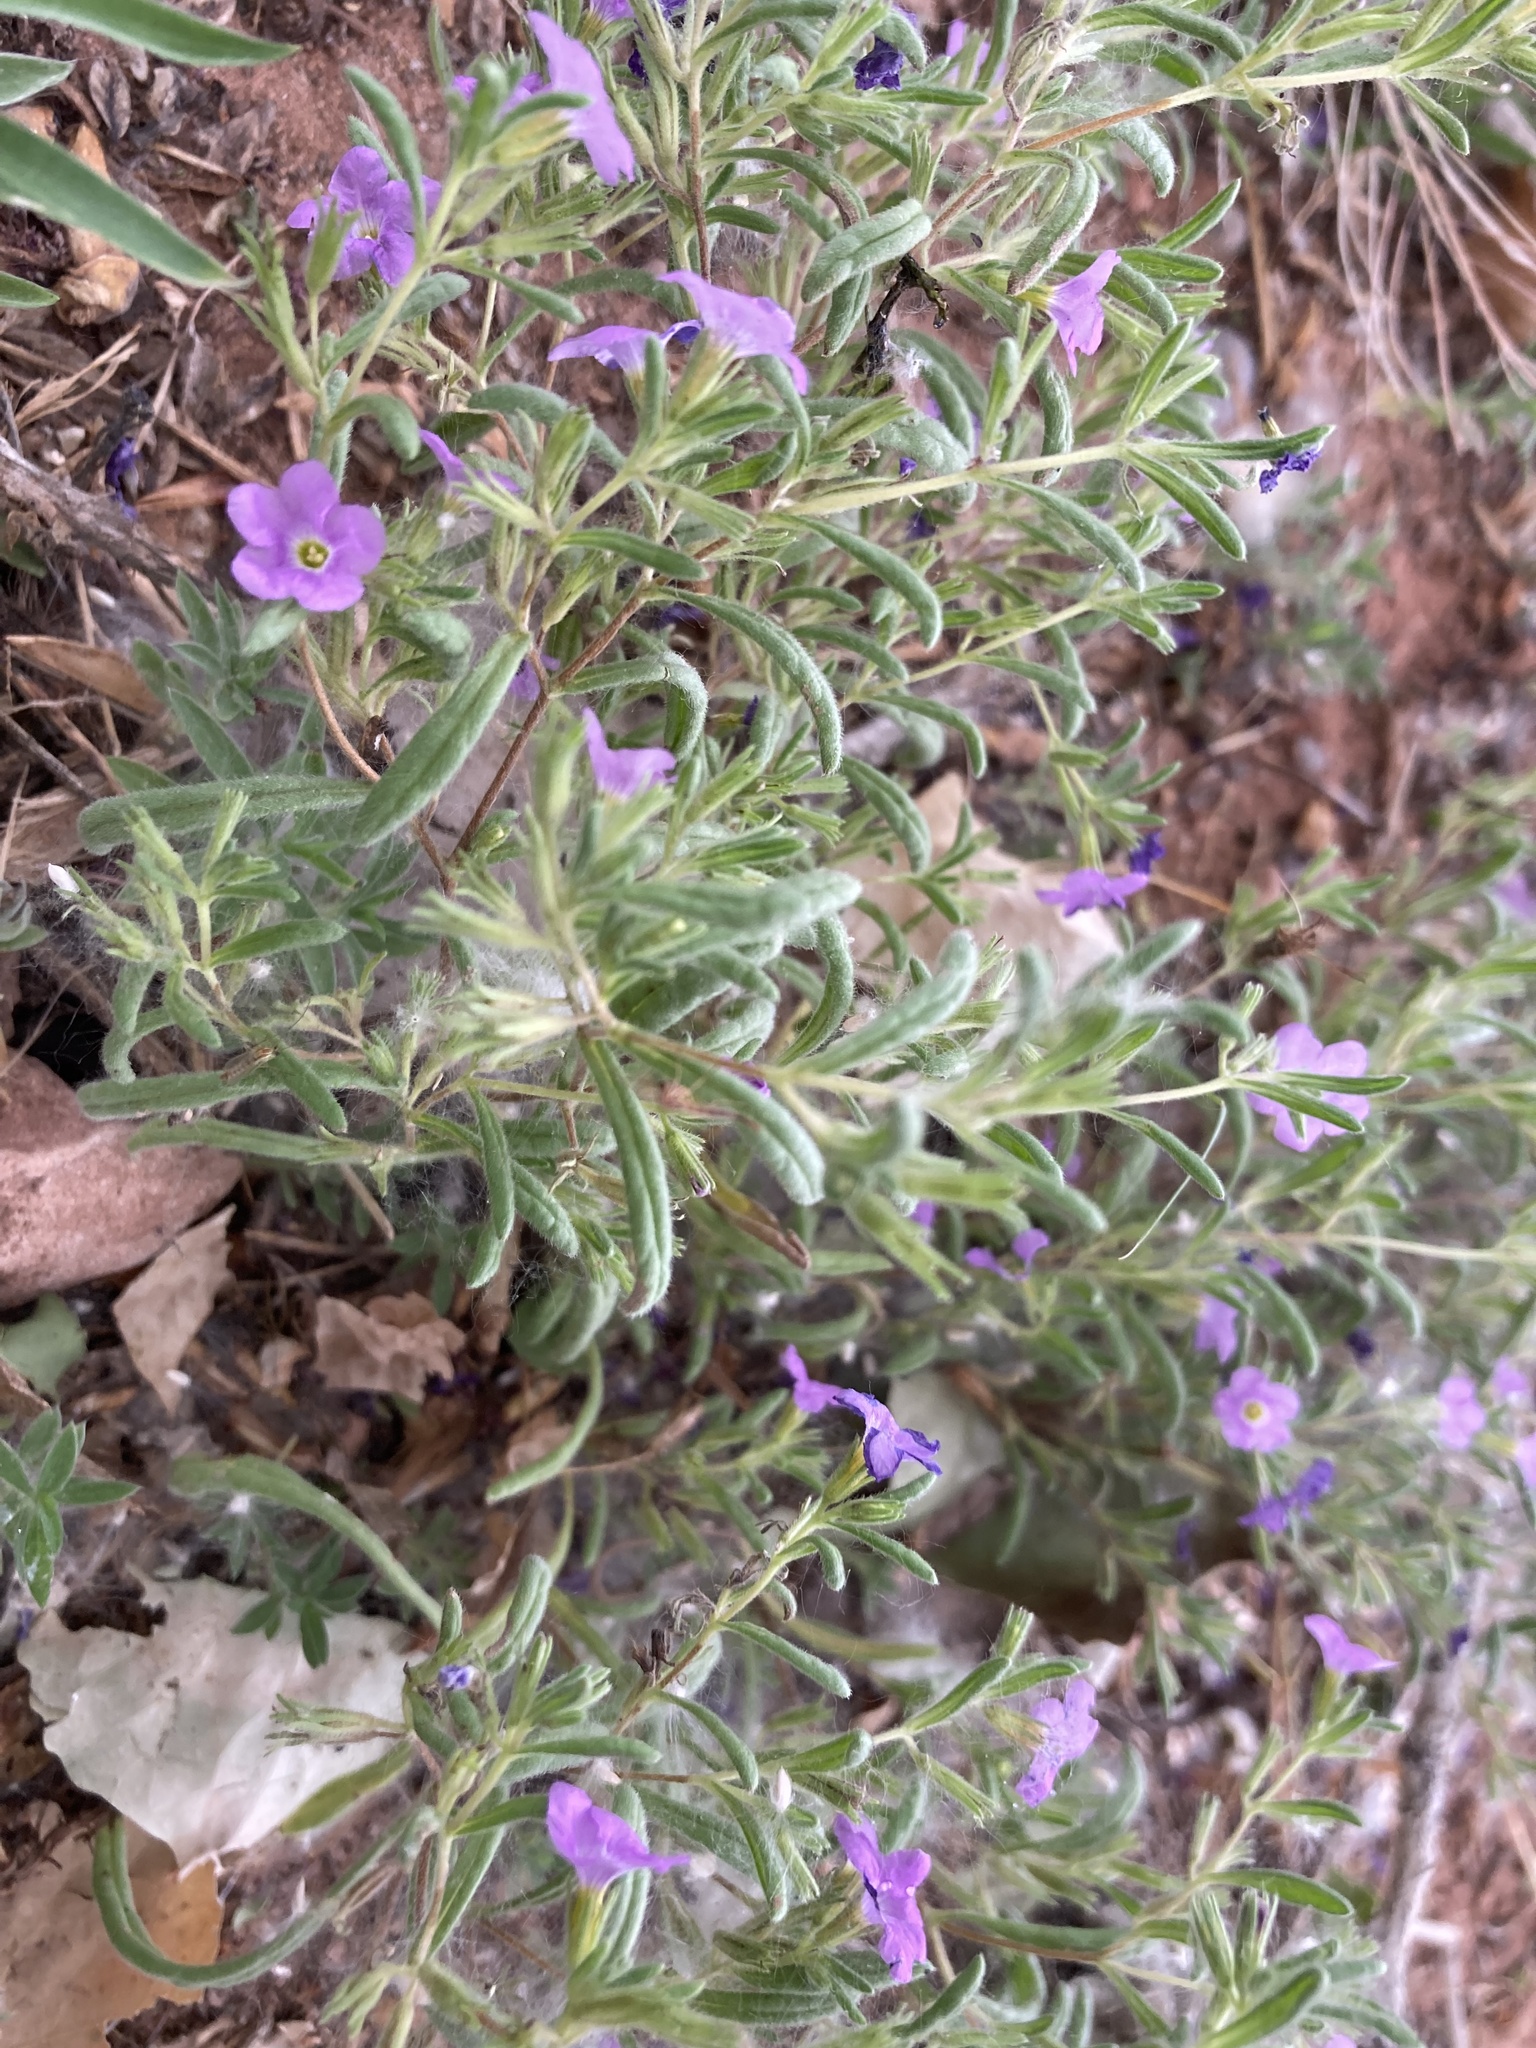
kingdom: Plantae
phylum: Tracheophyta
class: Magnoliopsida
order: Boraginales
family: Namaceae
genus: Nama
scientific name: Nama hispida
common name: Bristly nama
